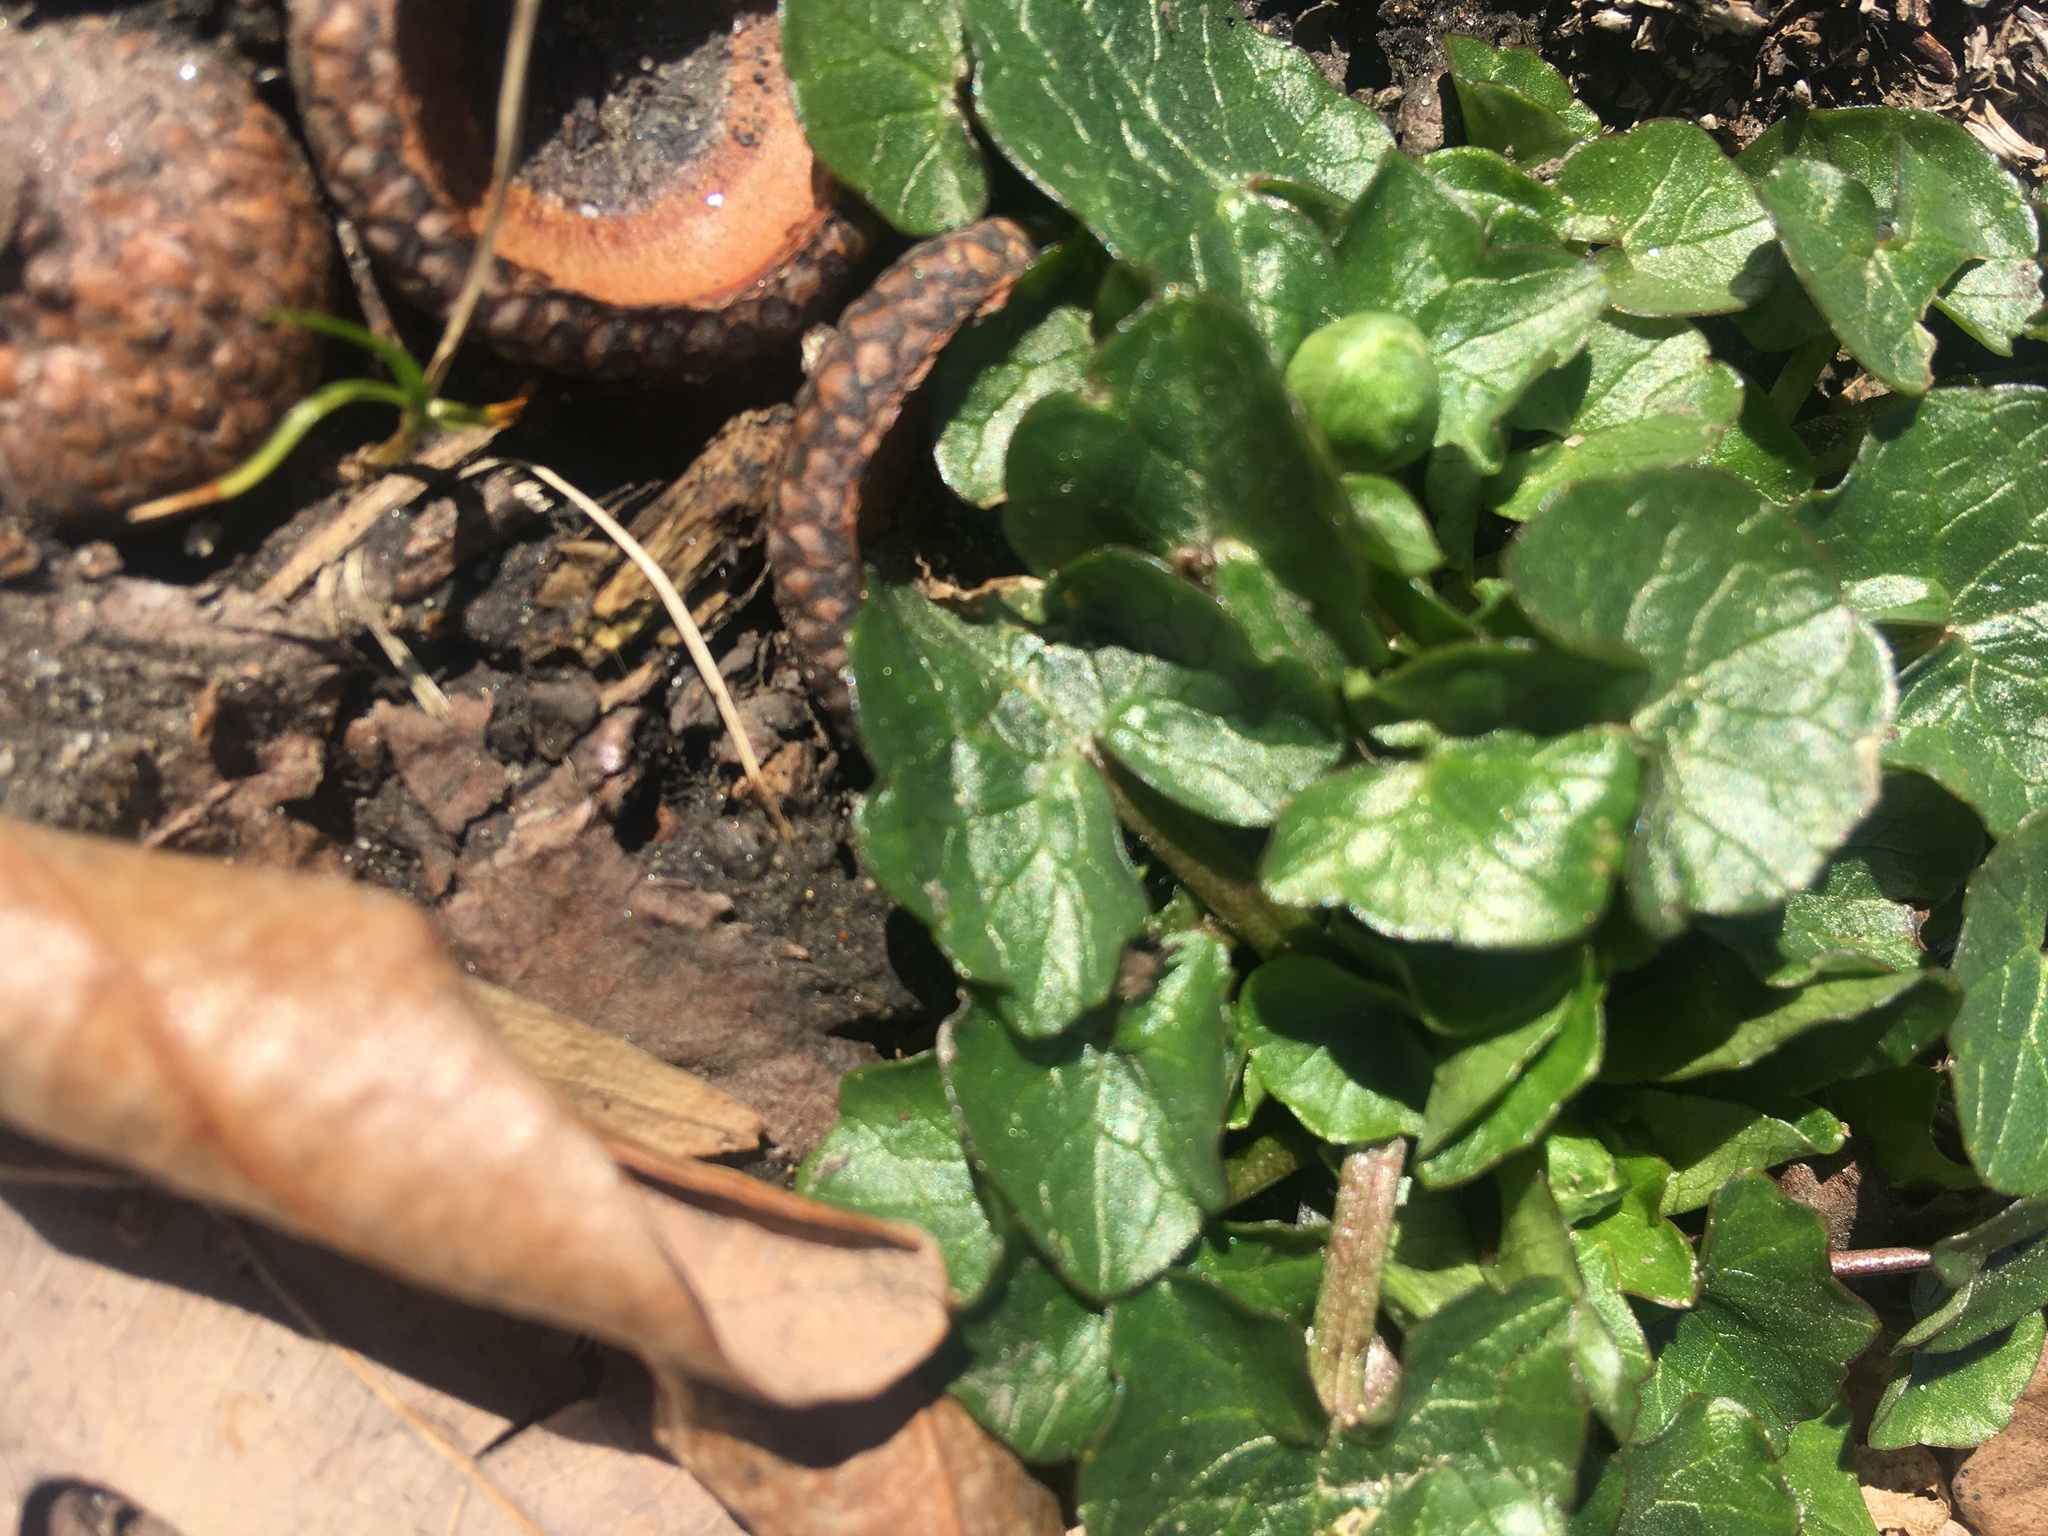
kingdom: Plantae
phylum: Tracheophyta
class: Magnoliopsida
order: Ranunculales
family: Ranunculaceae
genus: Ficaria
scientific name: Ficaria verna
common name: Lesser celandine
